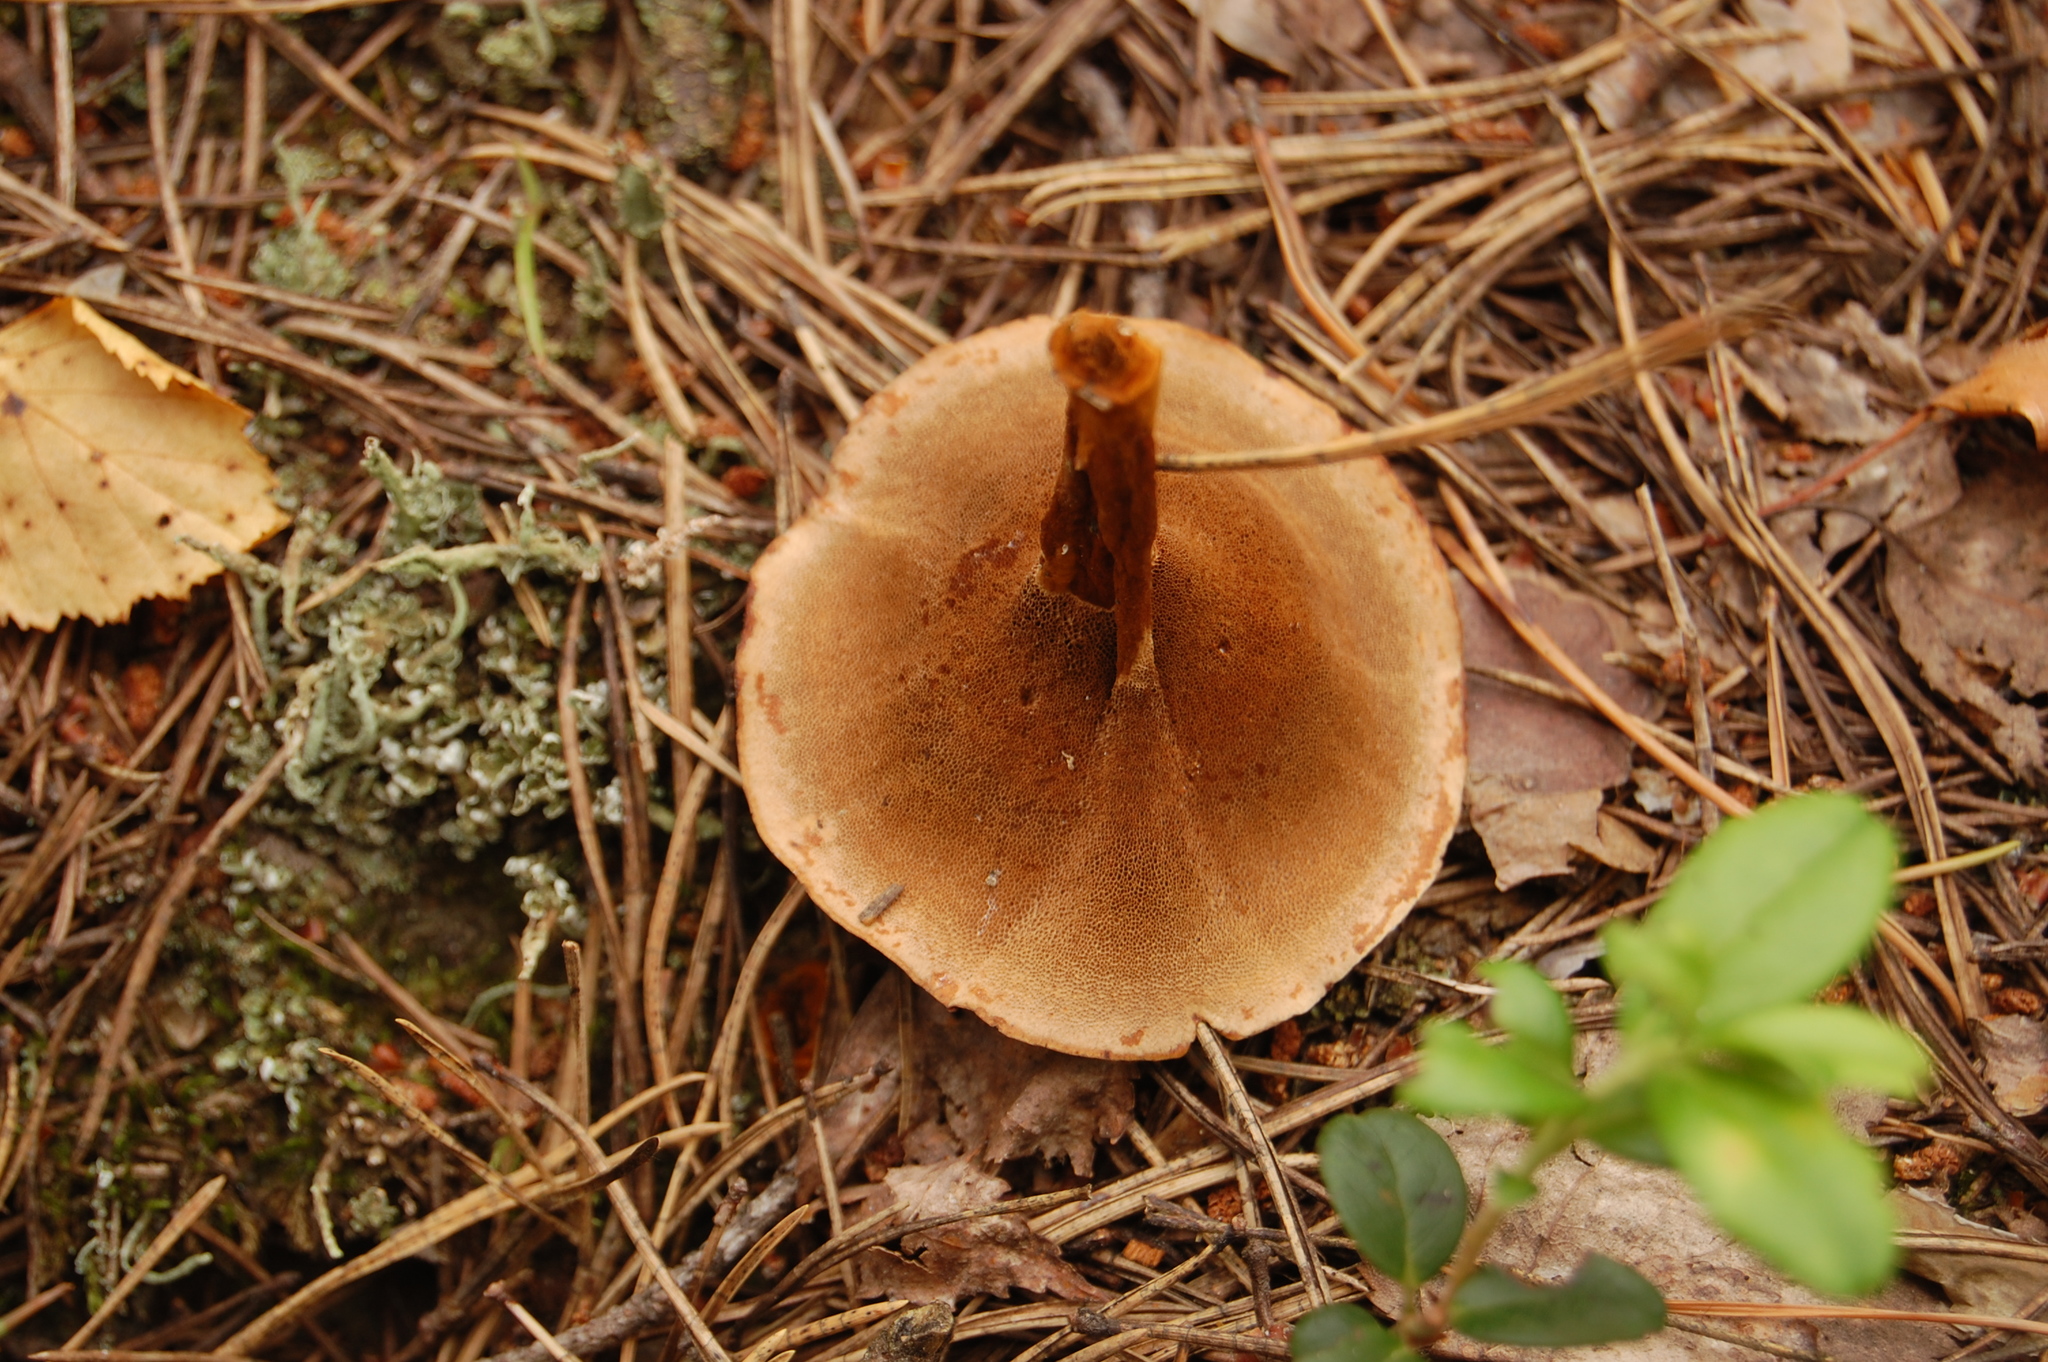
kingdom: Fungi
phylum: Basidiomycota
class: Agaricomycetes
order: Hymenochaetales
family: Hymenochaetaceae
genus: Coltricia
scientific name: Coltricia perennis
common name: Tiger's eye
